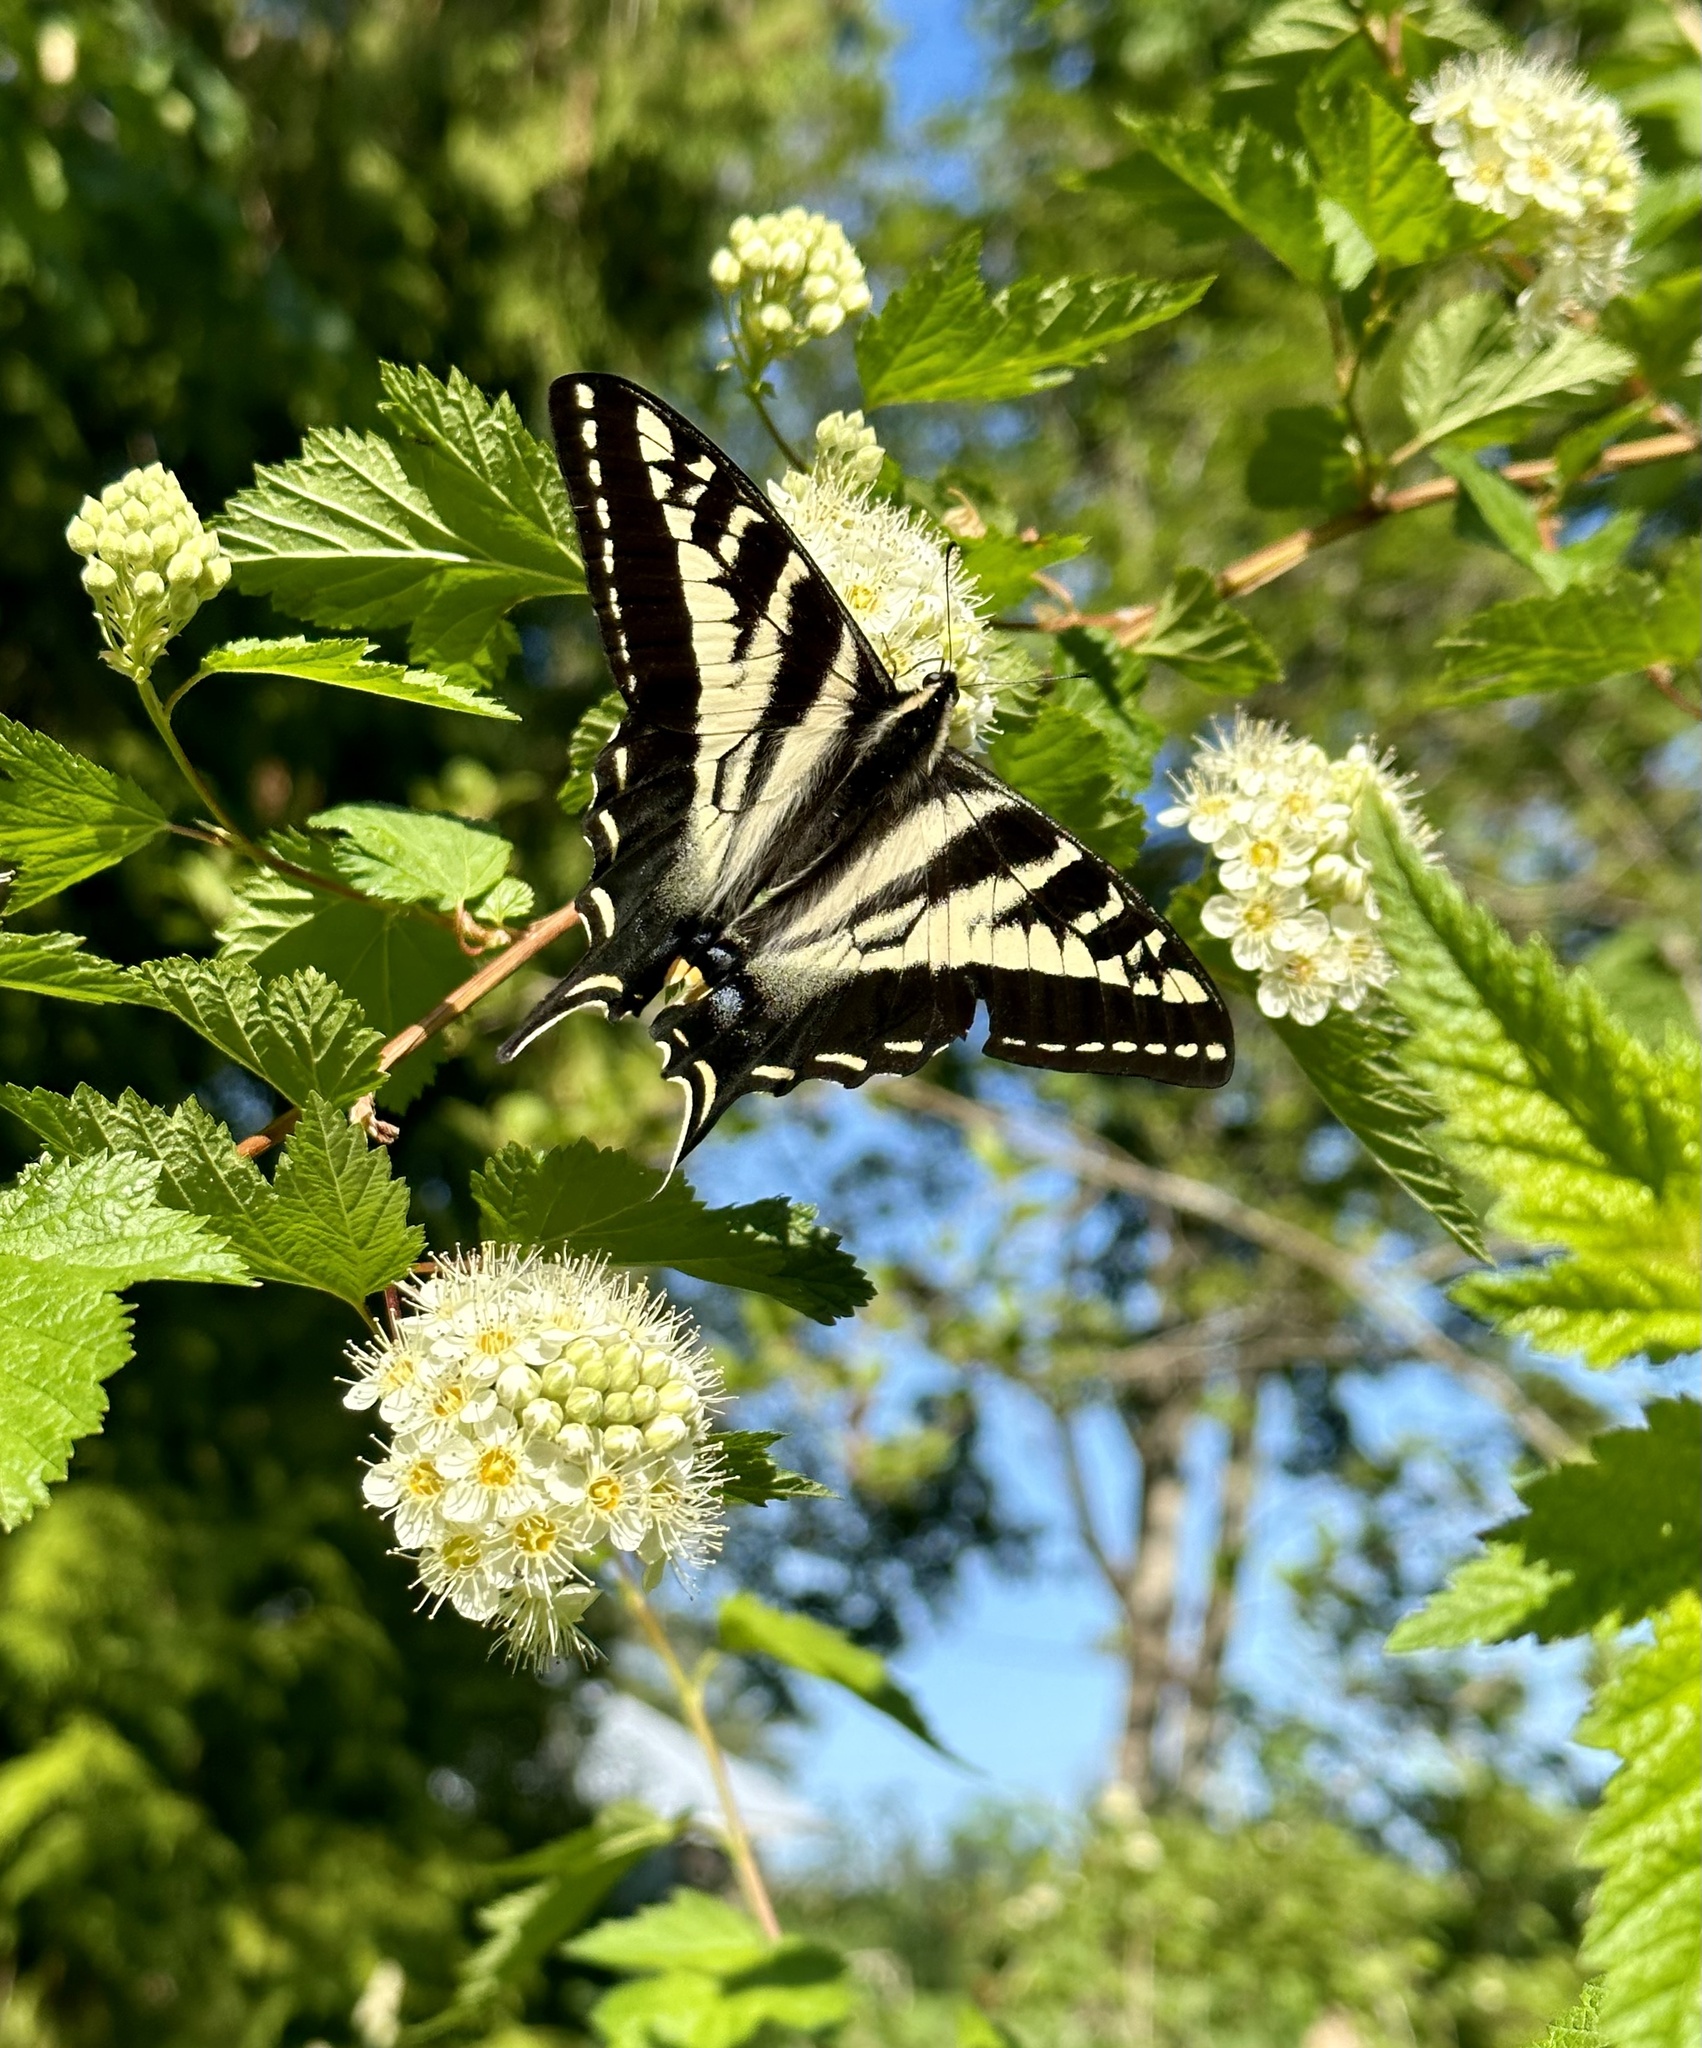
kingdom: Animalia
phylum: Arthropoda
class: Insecta
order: Lepidoptera
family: Papilionidae
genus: Papilio
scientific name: Papilio eurymedon
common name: Pale tiger swallowtail
